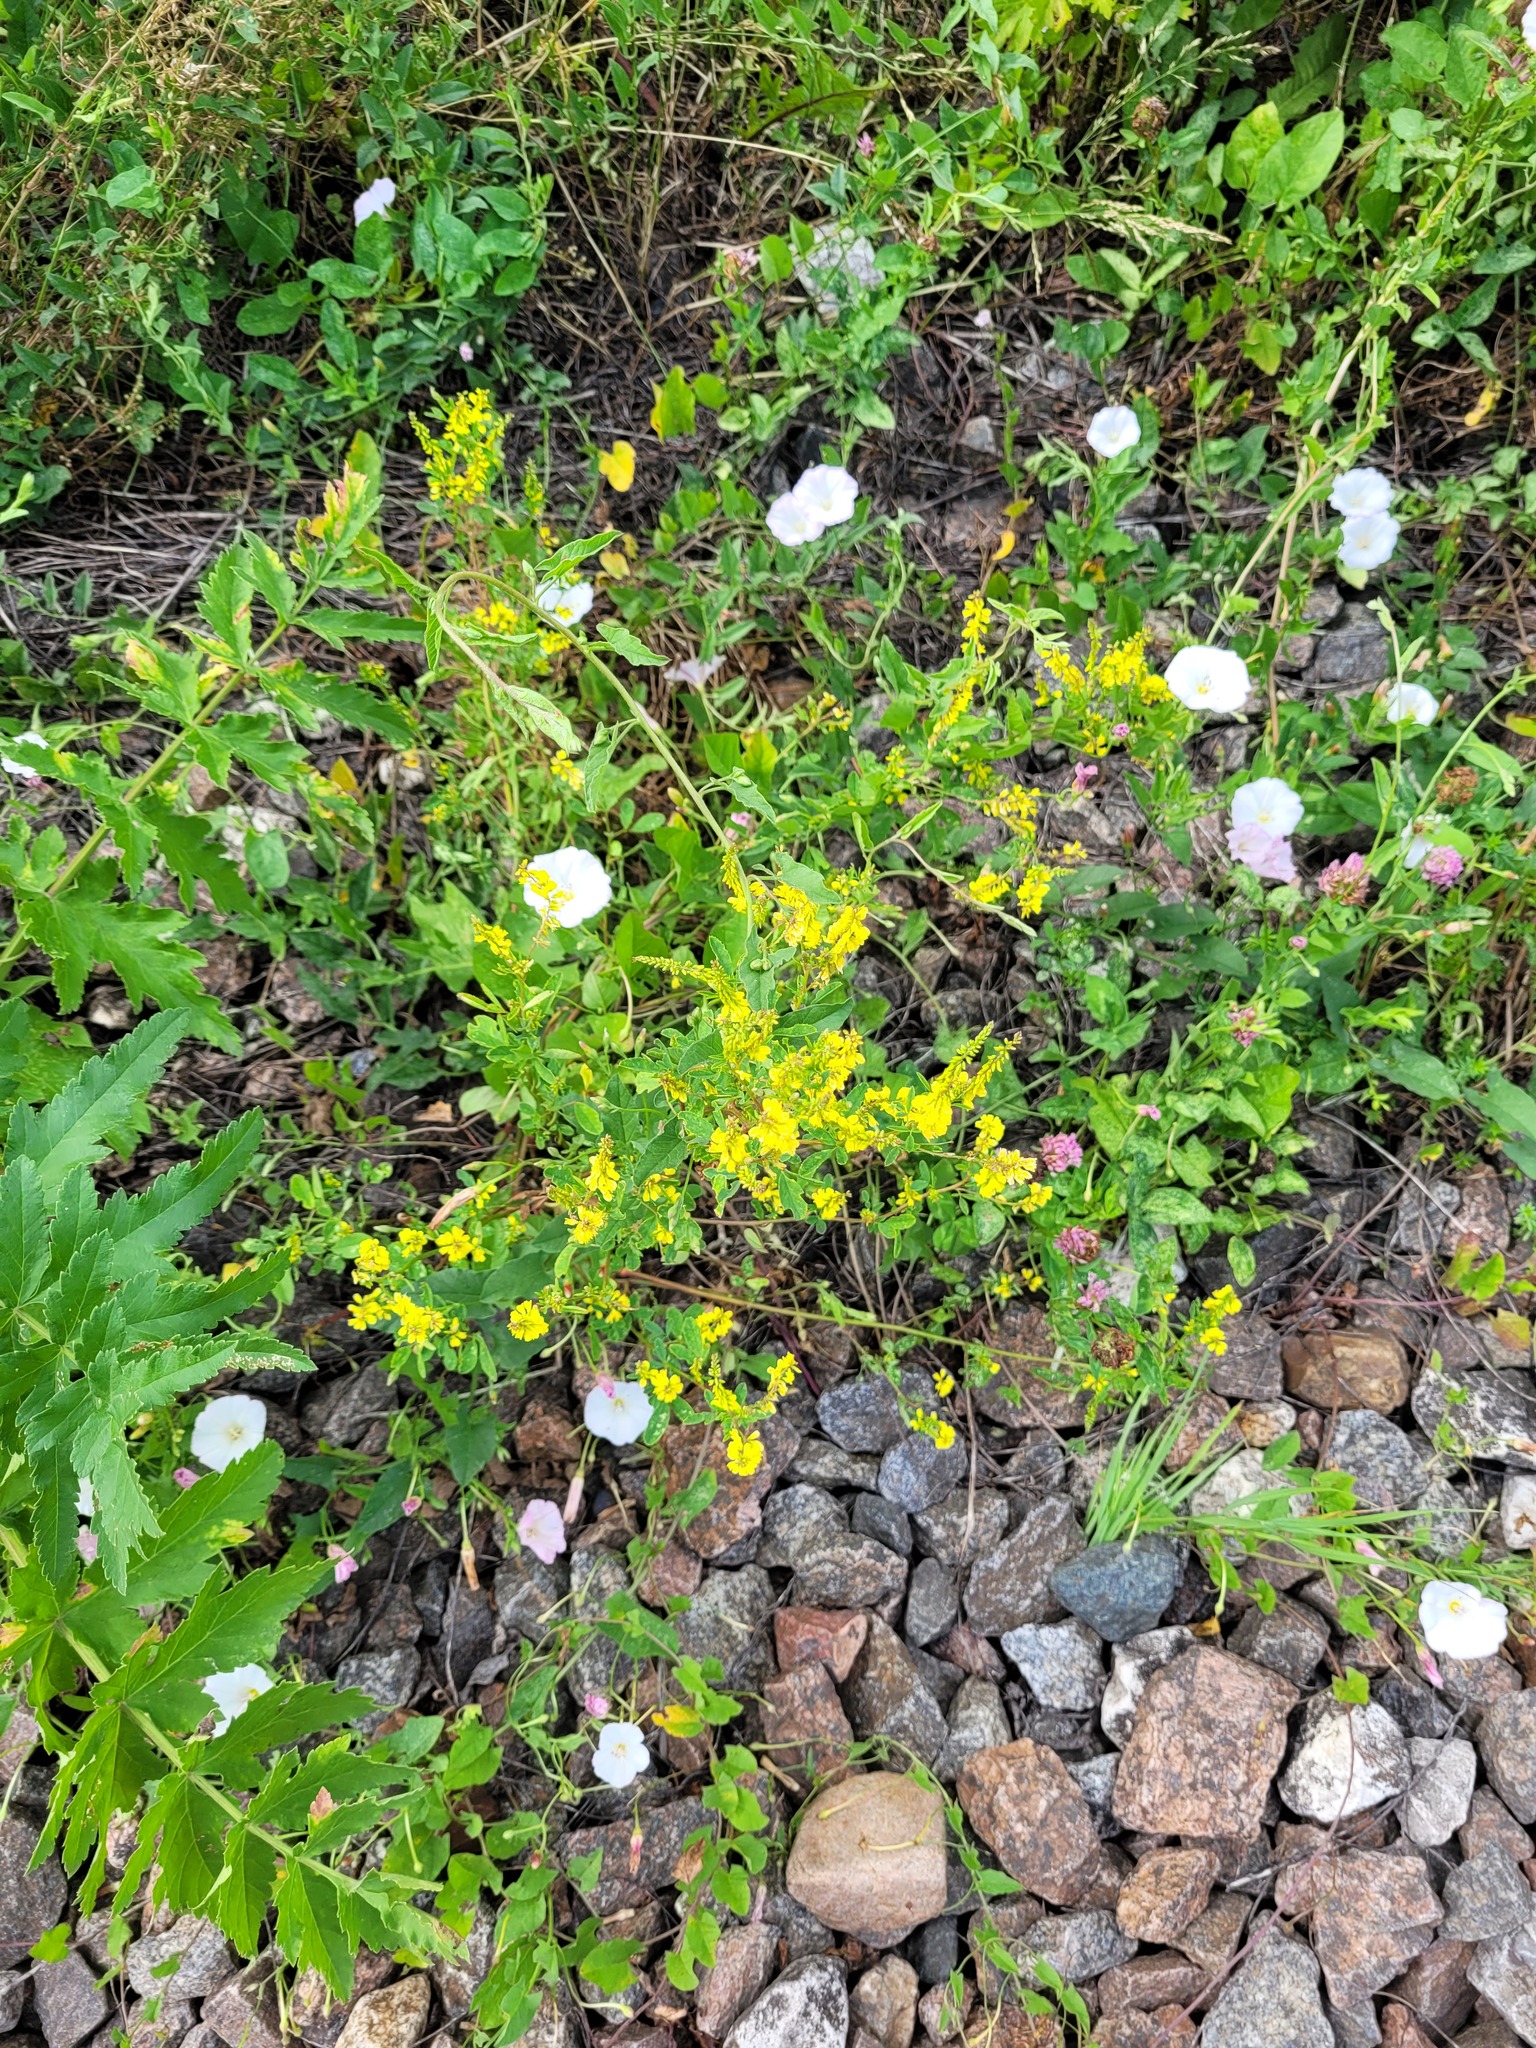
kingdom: Plantae
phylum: Tracheophyta
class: Magnoliopsida
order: Fabales
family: Fabaceae
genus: Melilotus
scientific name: Melilotus officinalis
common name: Sweetclover
